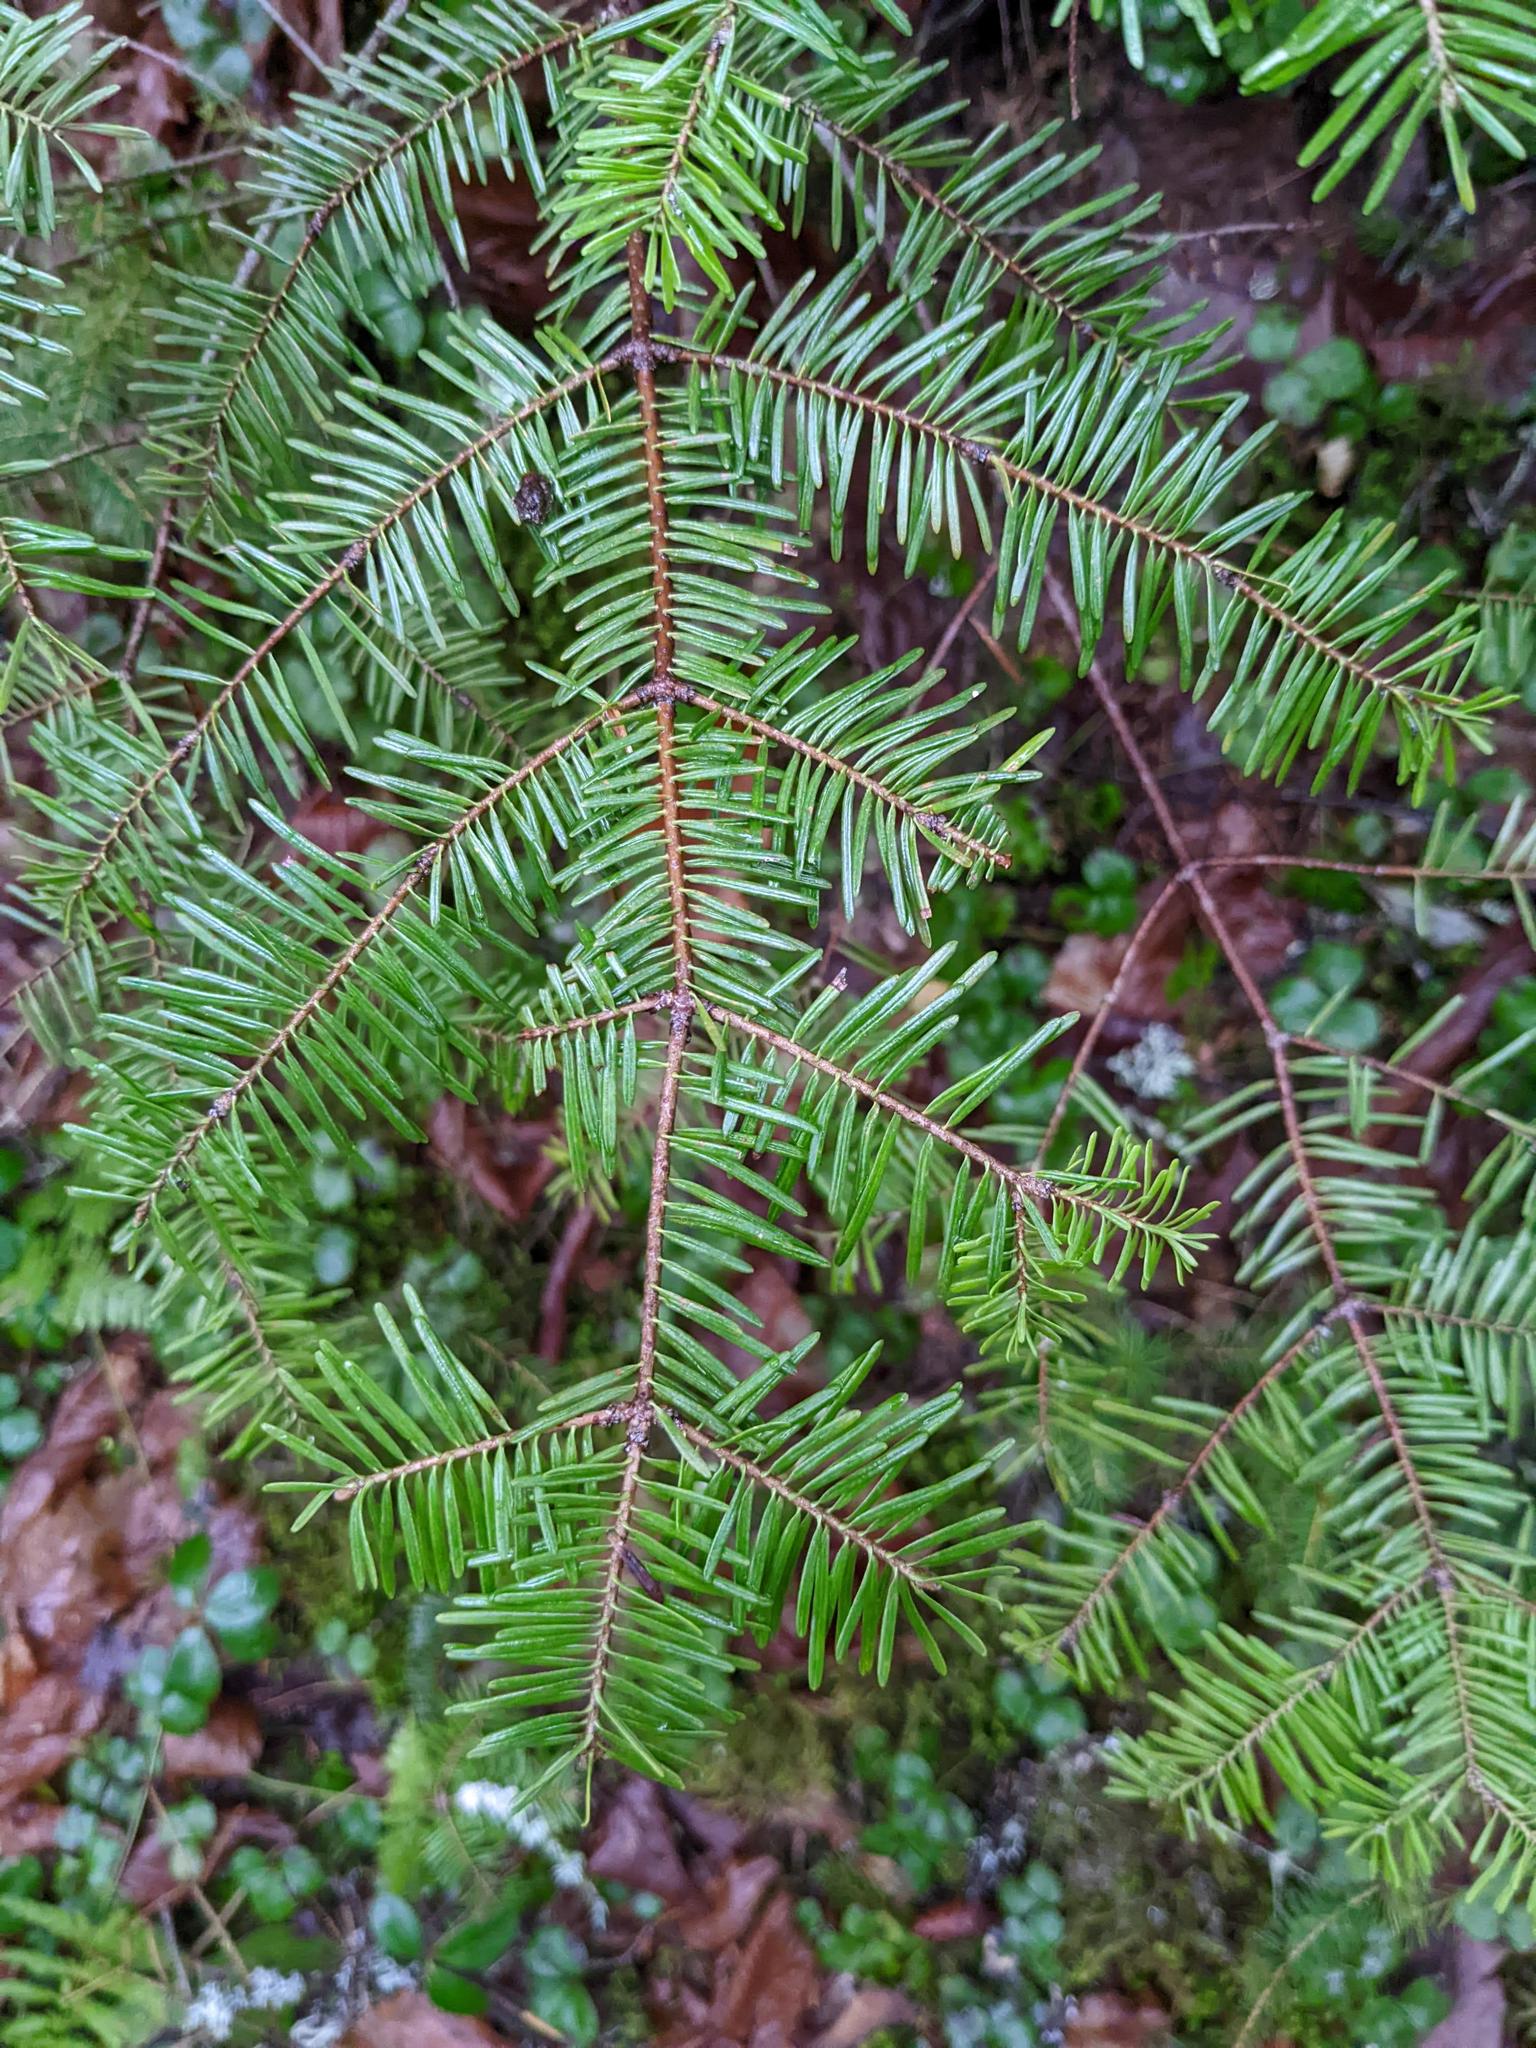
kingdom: Plantae
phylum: Tracheophyta
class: Pinopsida
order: Pinales
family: Pinaceae
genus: Abies
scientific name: Abies balsamea
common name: Balsam fir
